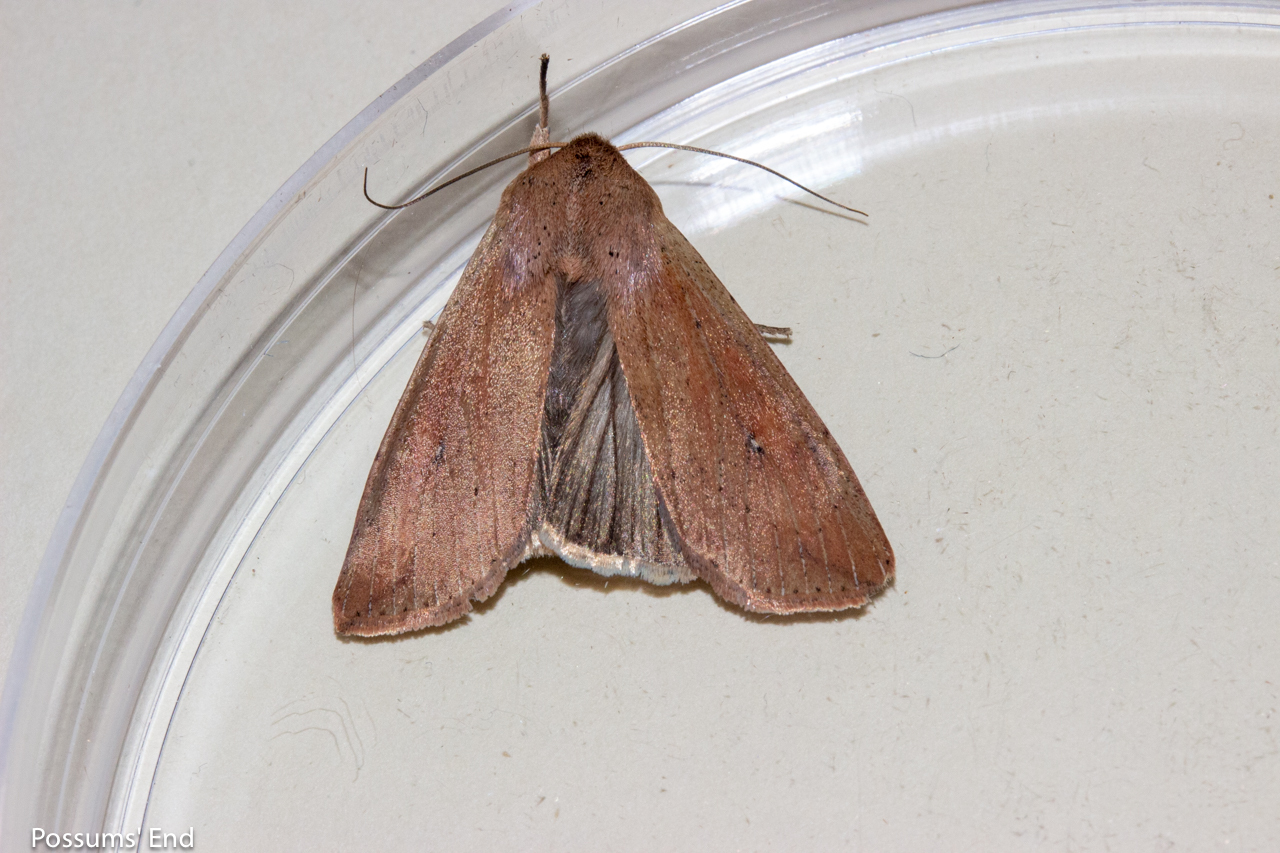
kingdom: Animalia
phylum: Arthropoda
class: Insecta
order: Lepidoptera
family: Noctuidae
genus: Mythimna
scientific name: Mythimna separata
